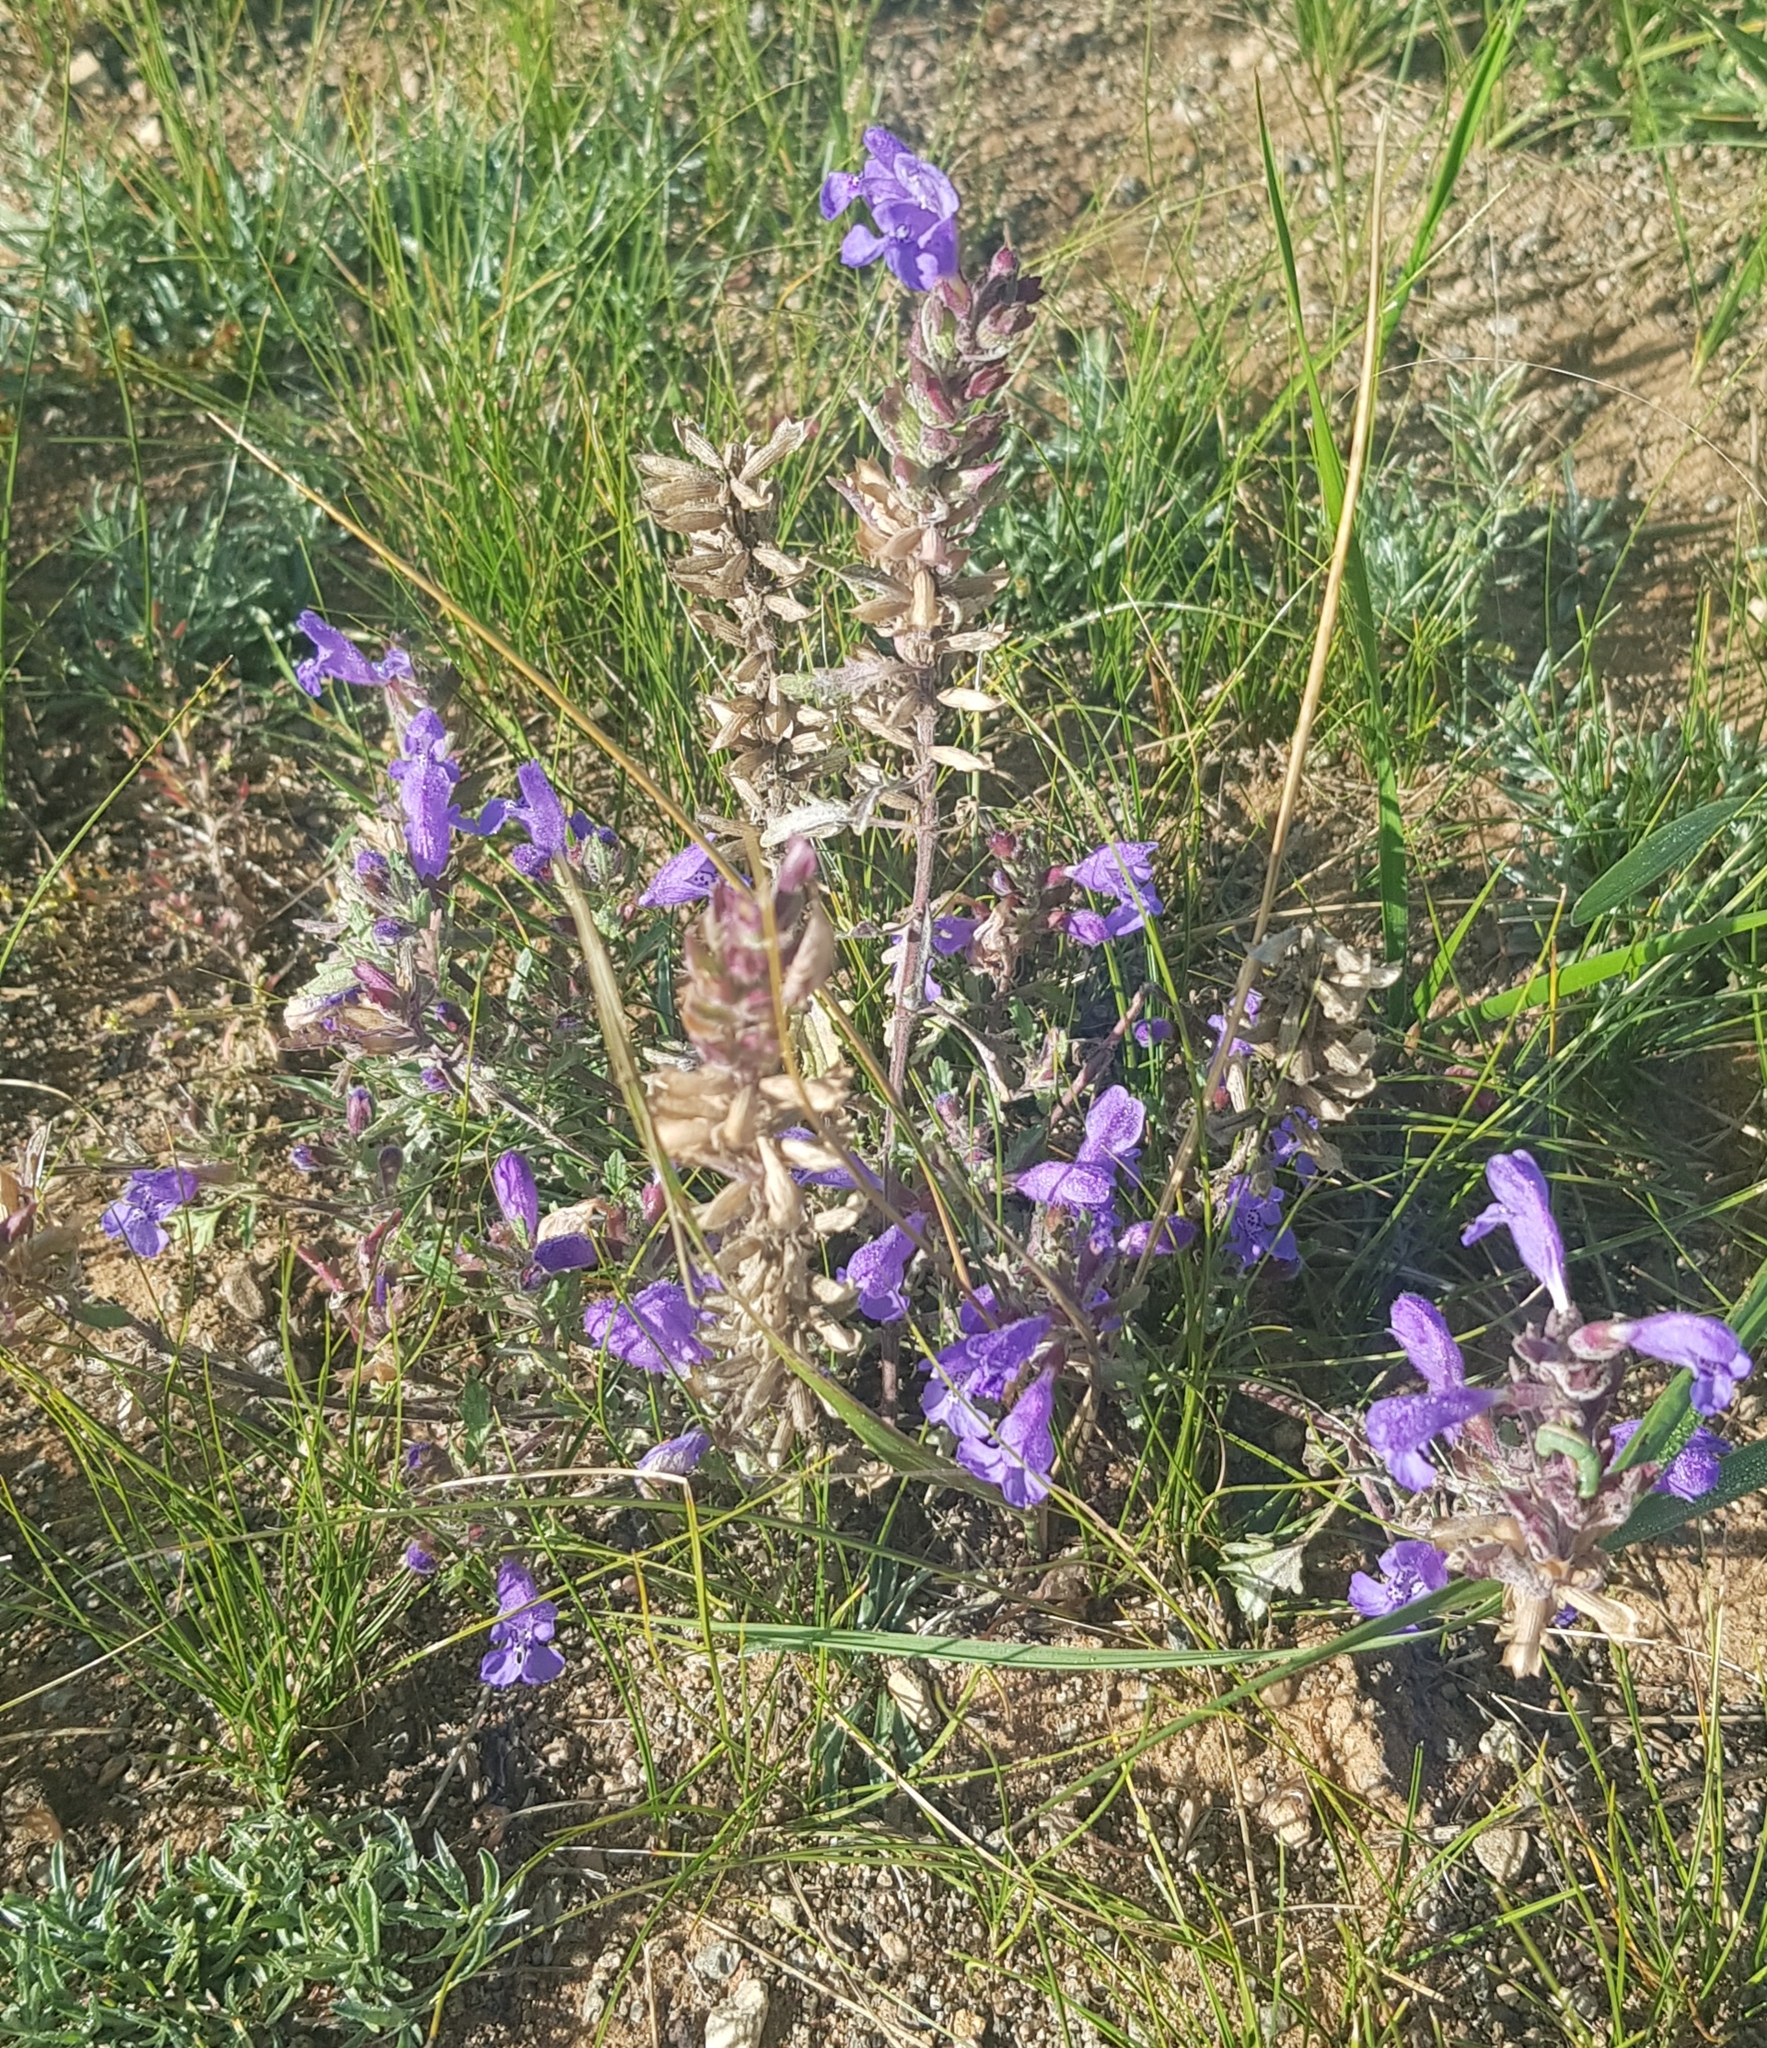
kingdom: Plantae
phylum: Tracheophyta
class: Magnoliopsida
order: Lamiales
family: Lamiaceae
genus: Dracocephalum
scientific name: Dracocephalum foetidum
